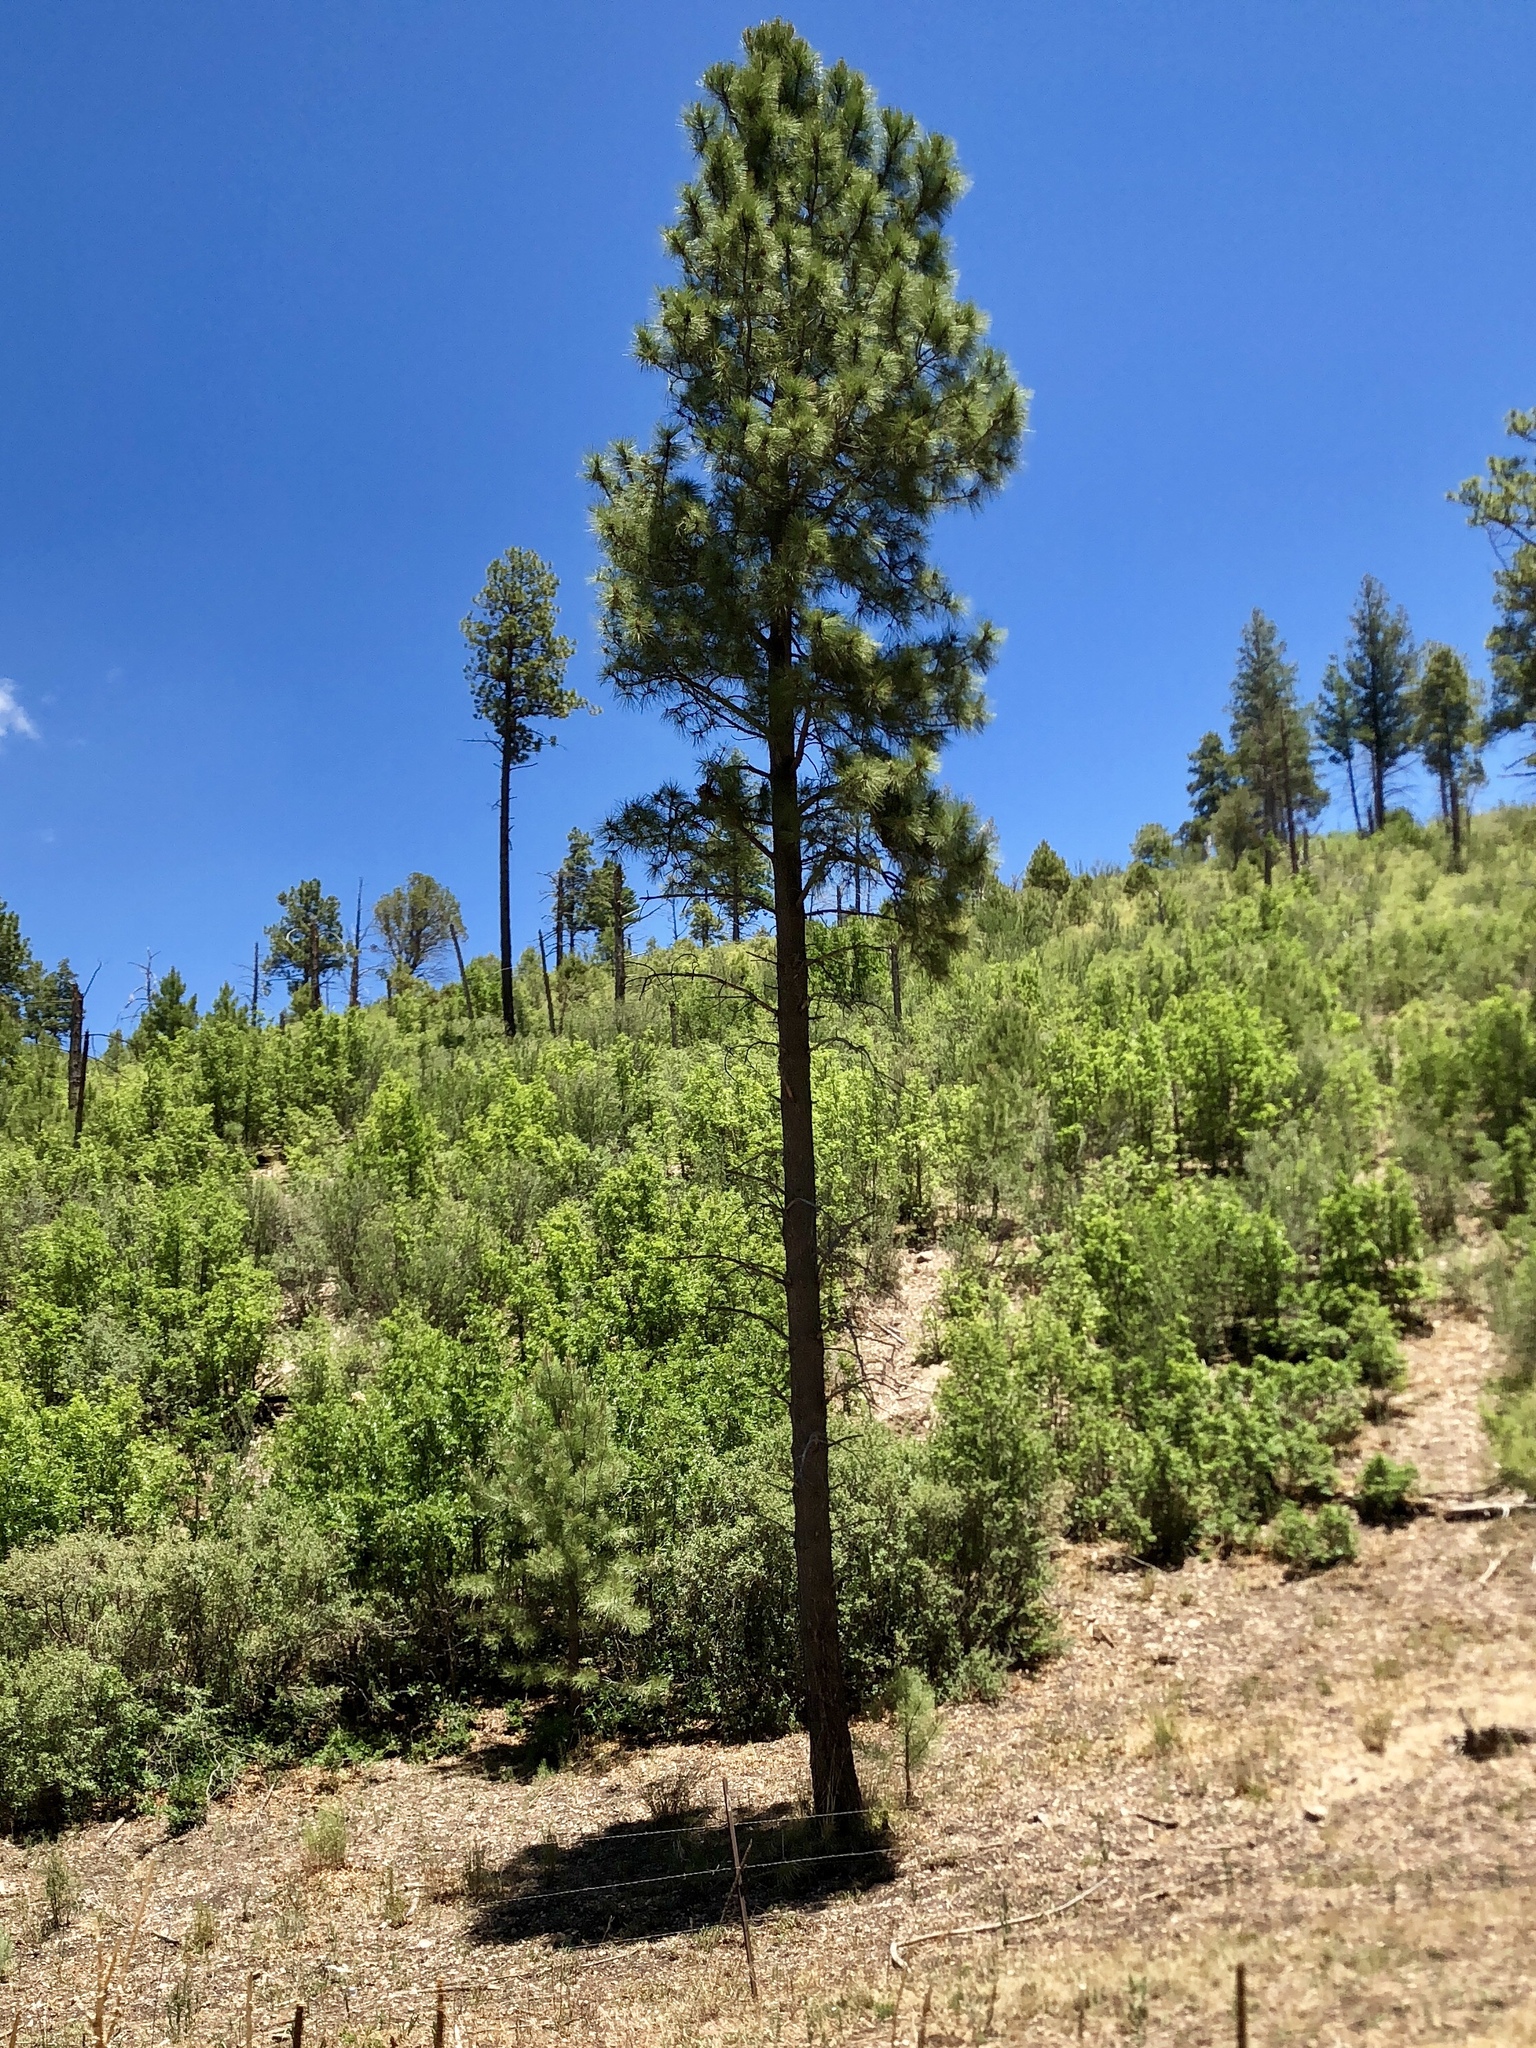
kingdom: Plantae
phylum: Tracheophyta
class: Pinopsida
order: Pinales
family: Pinaceae
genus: Pinus
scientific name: Pinus ponderosa
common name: Western yellow-pine
